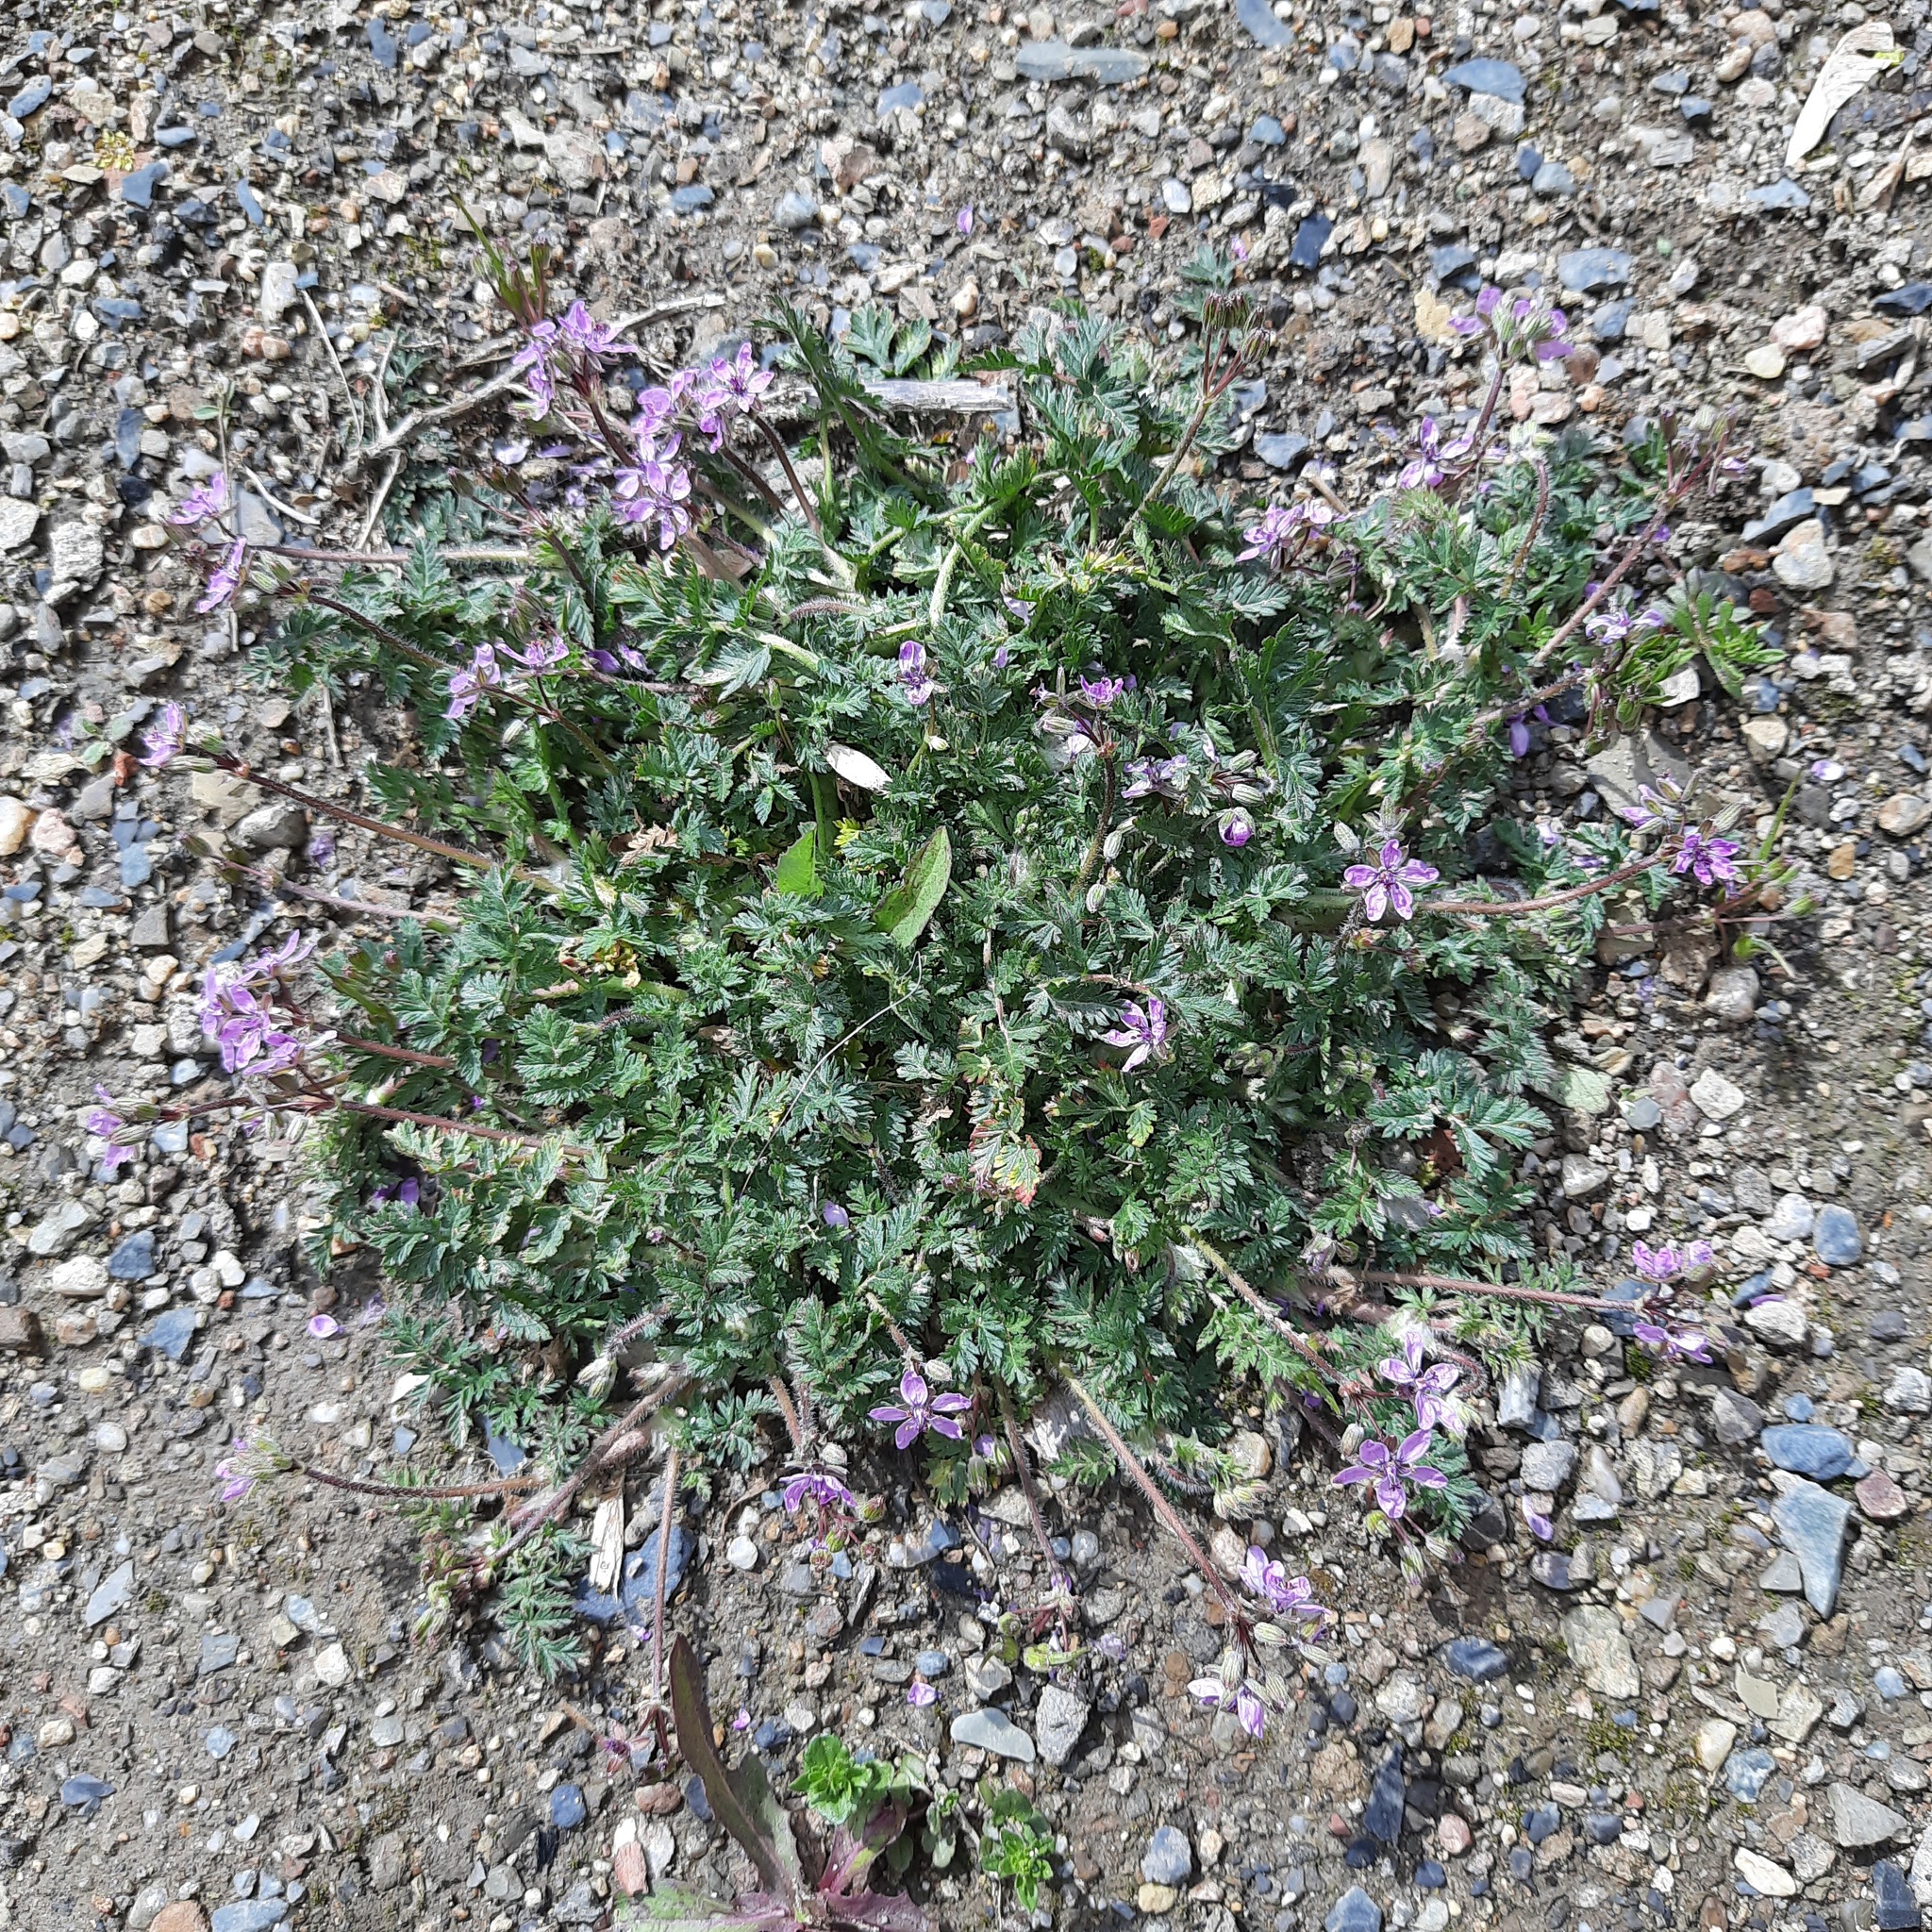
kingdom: Plantae
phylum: Tracheophyta
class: Magnoliopsida
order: Geraniales
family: Geraniaceae
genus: Erodium
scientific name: Erodium cicutarium
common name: Common stork's-bill
